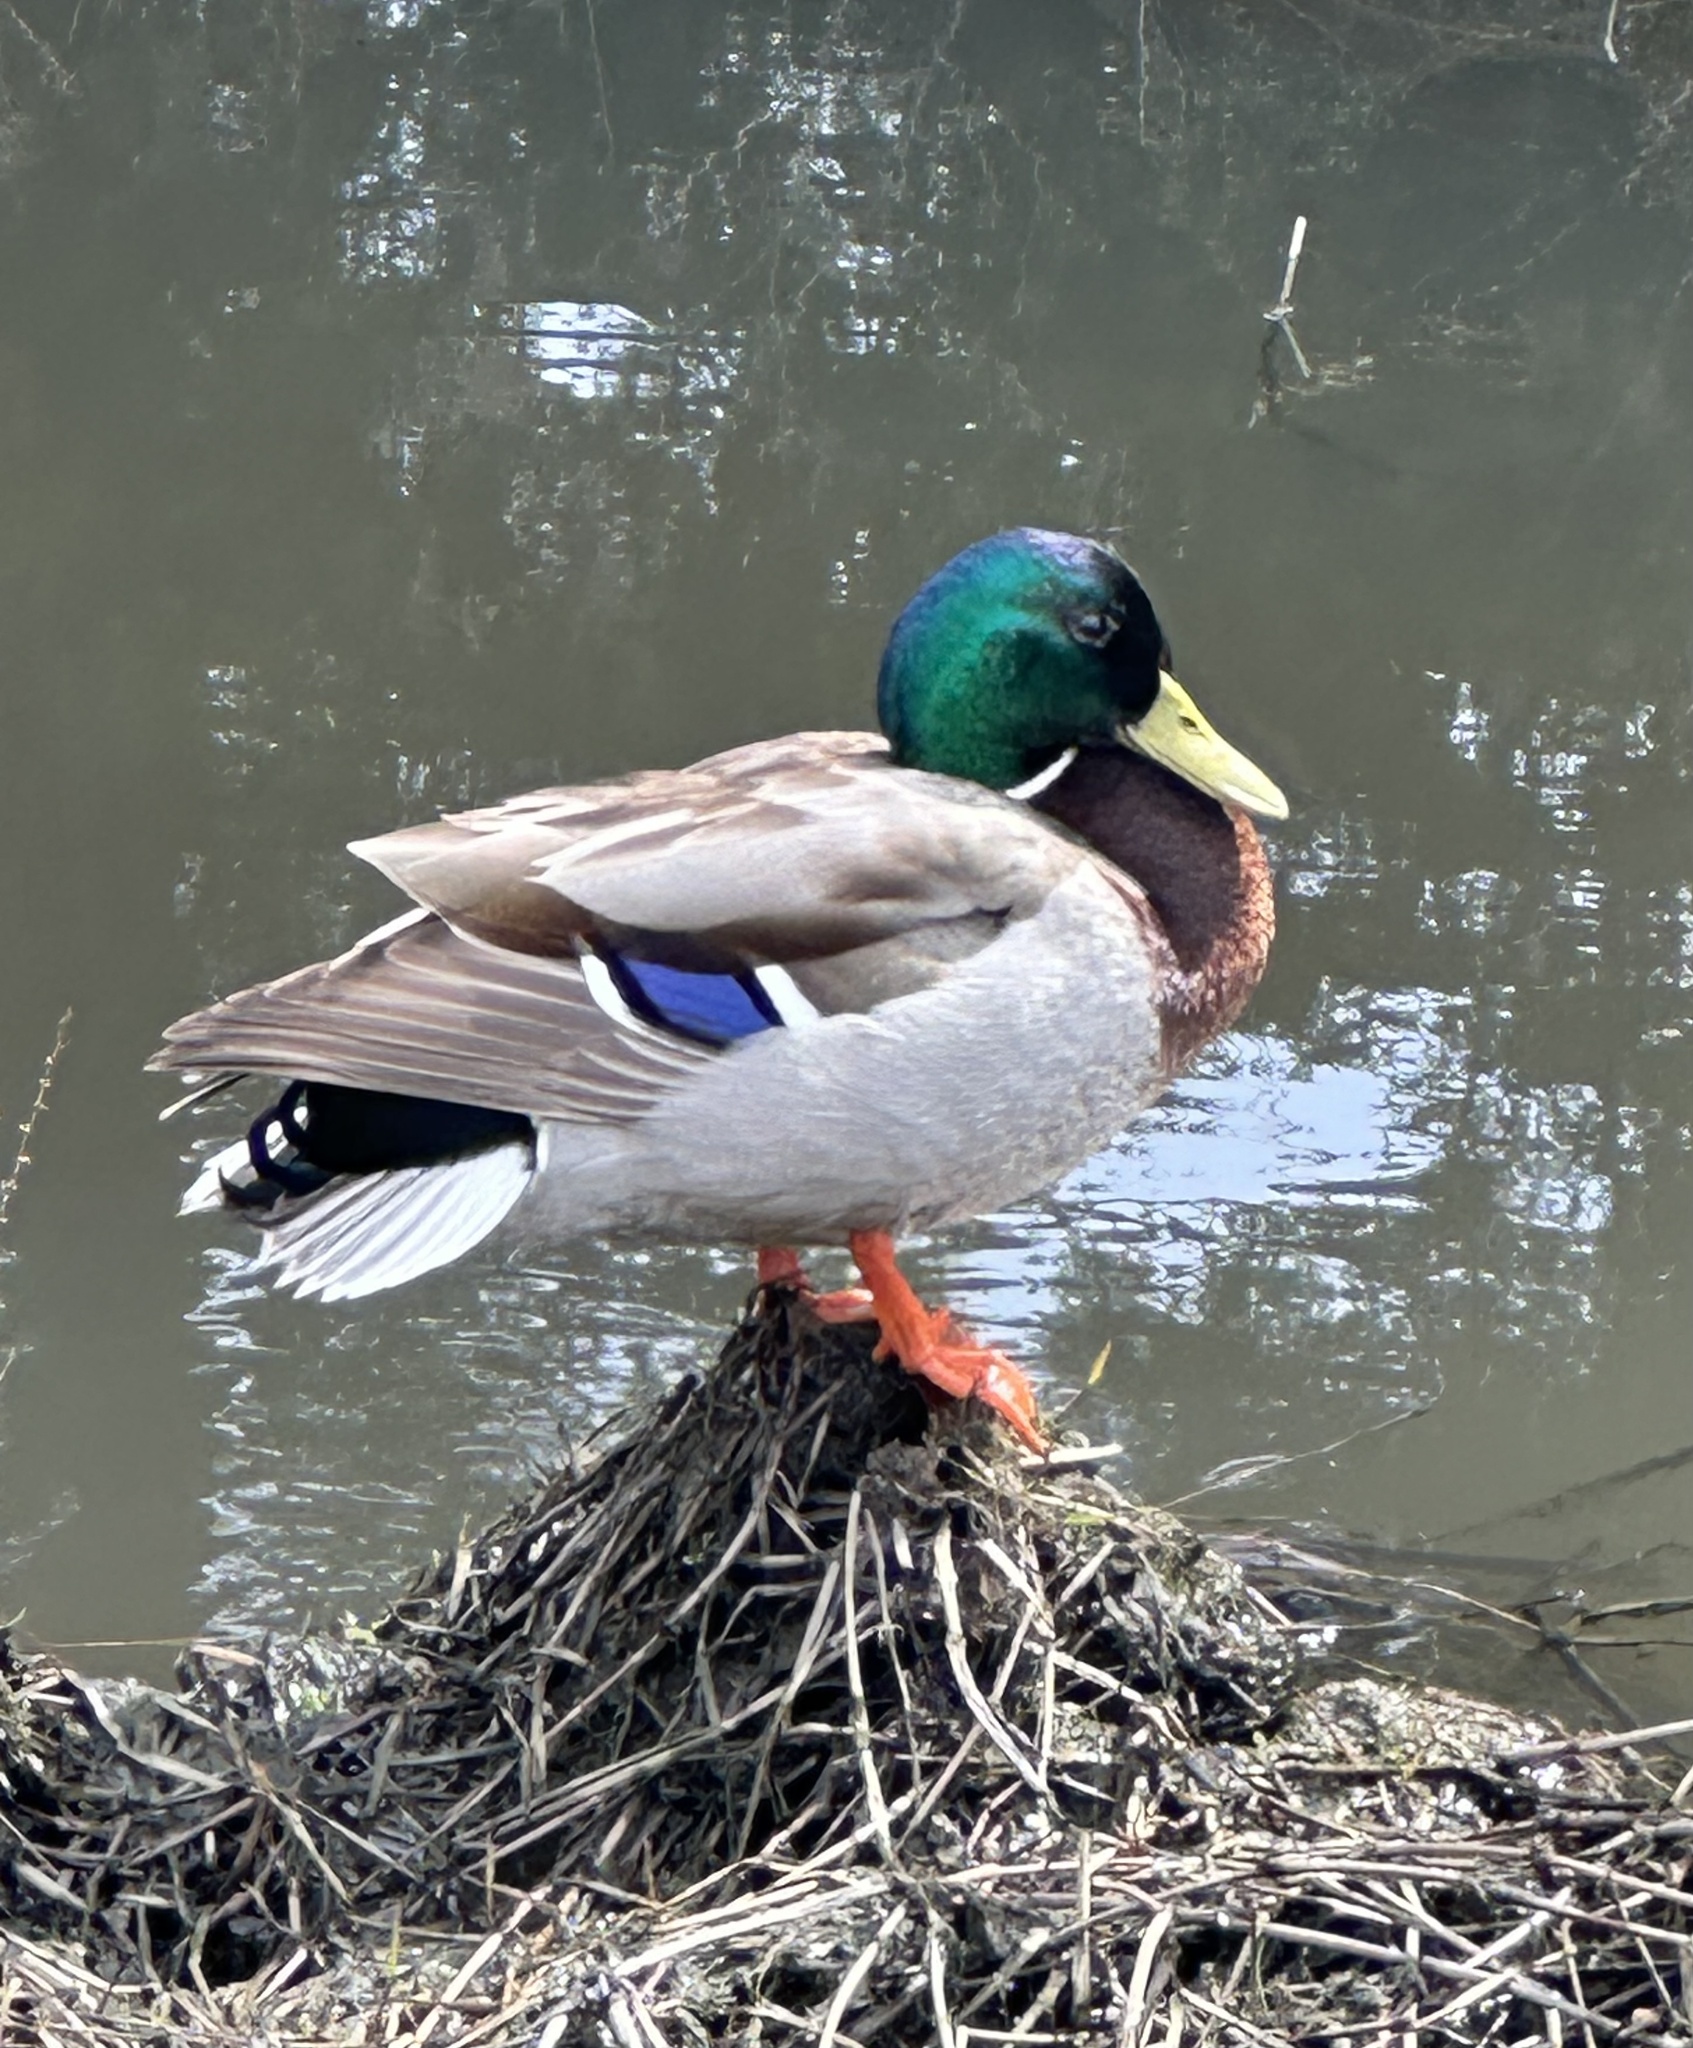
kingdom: Animalia
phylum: Chordata
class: Aves
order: Anseriformes
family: Anatidae
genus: Anas
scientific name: Anas platyrhynchos
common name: Mallard
